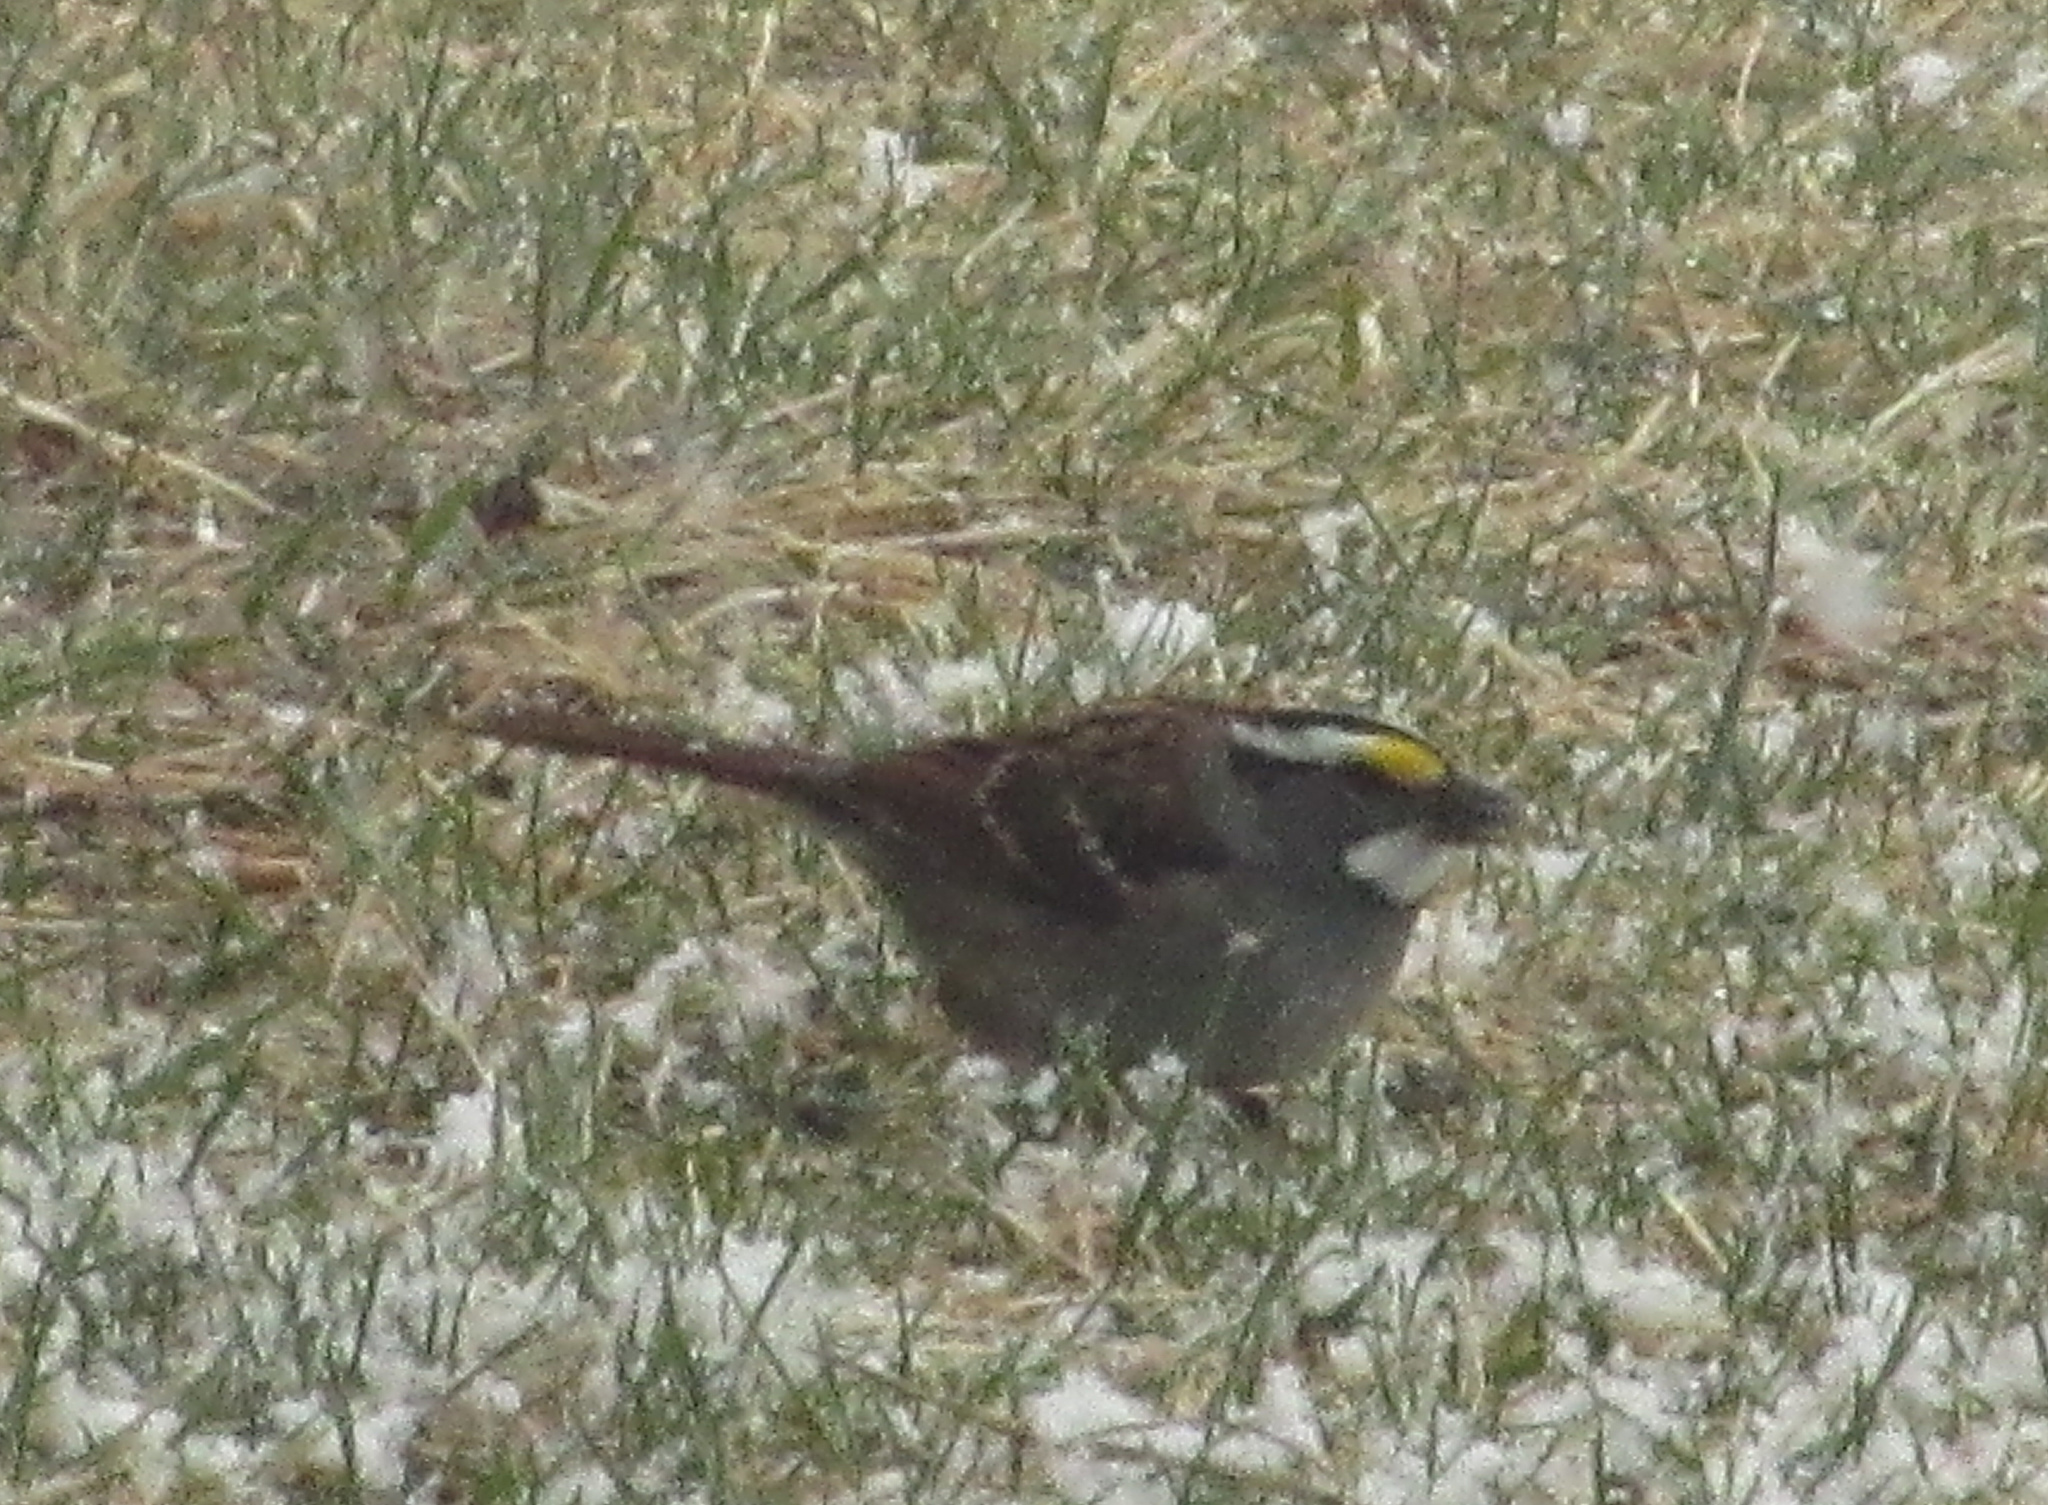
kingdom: Animalia
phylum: Chordata
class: Aves
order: Passeriformes
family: Passerellidae
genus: Zonotrichia
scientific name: Zonotrichia albicollis
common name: White-throated sparrow
